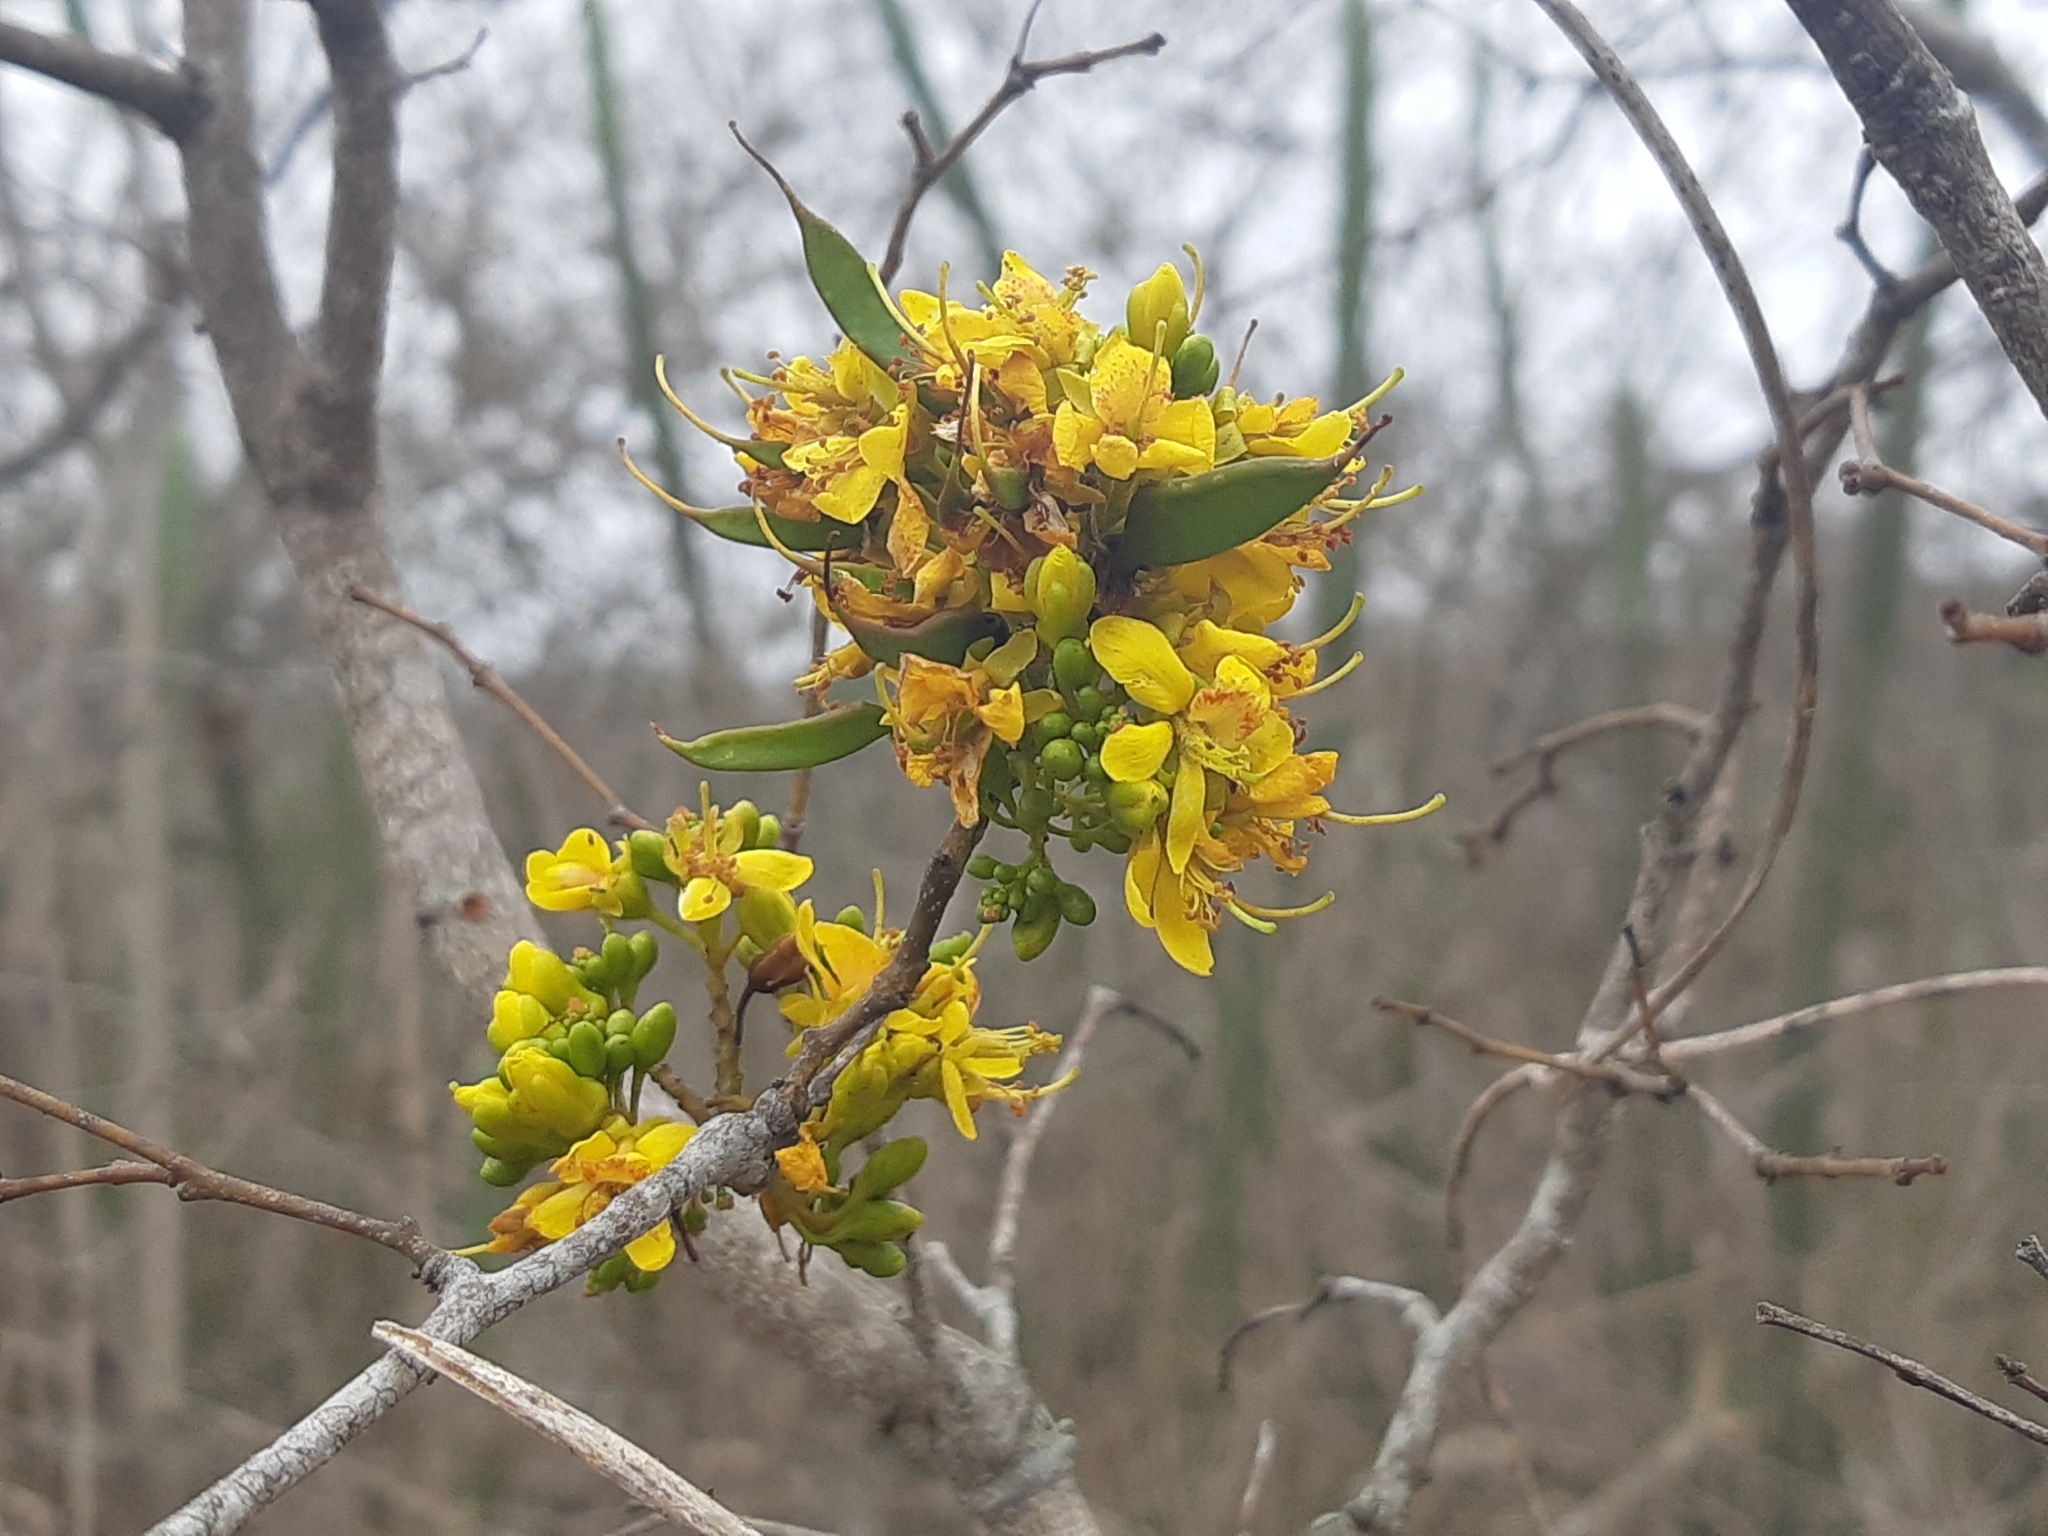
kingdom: Plantae
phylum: Tracheophyta
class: Magnoliopsida
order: Fabales
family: Fabaceae
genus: Libidibia
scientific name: Libidibia glabrata
